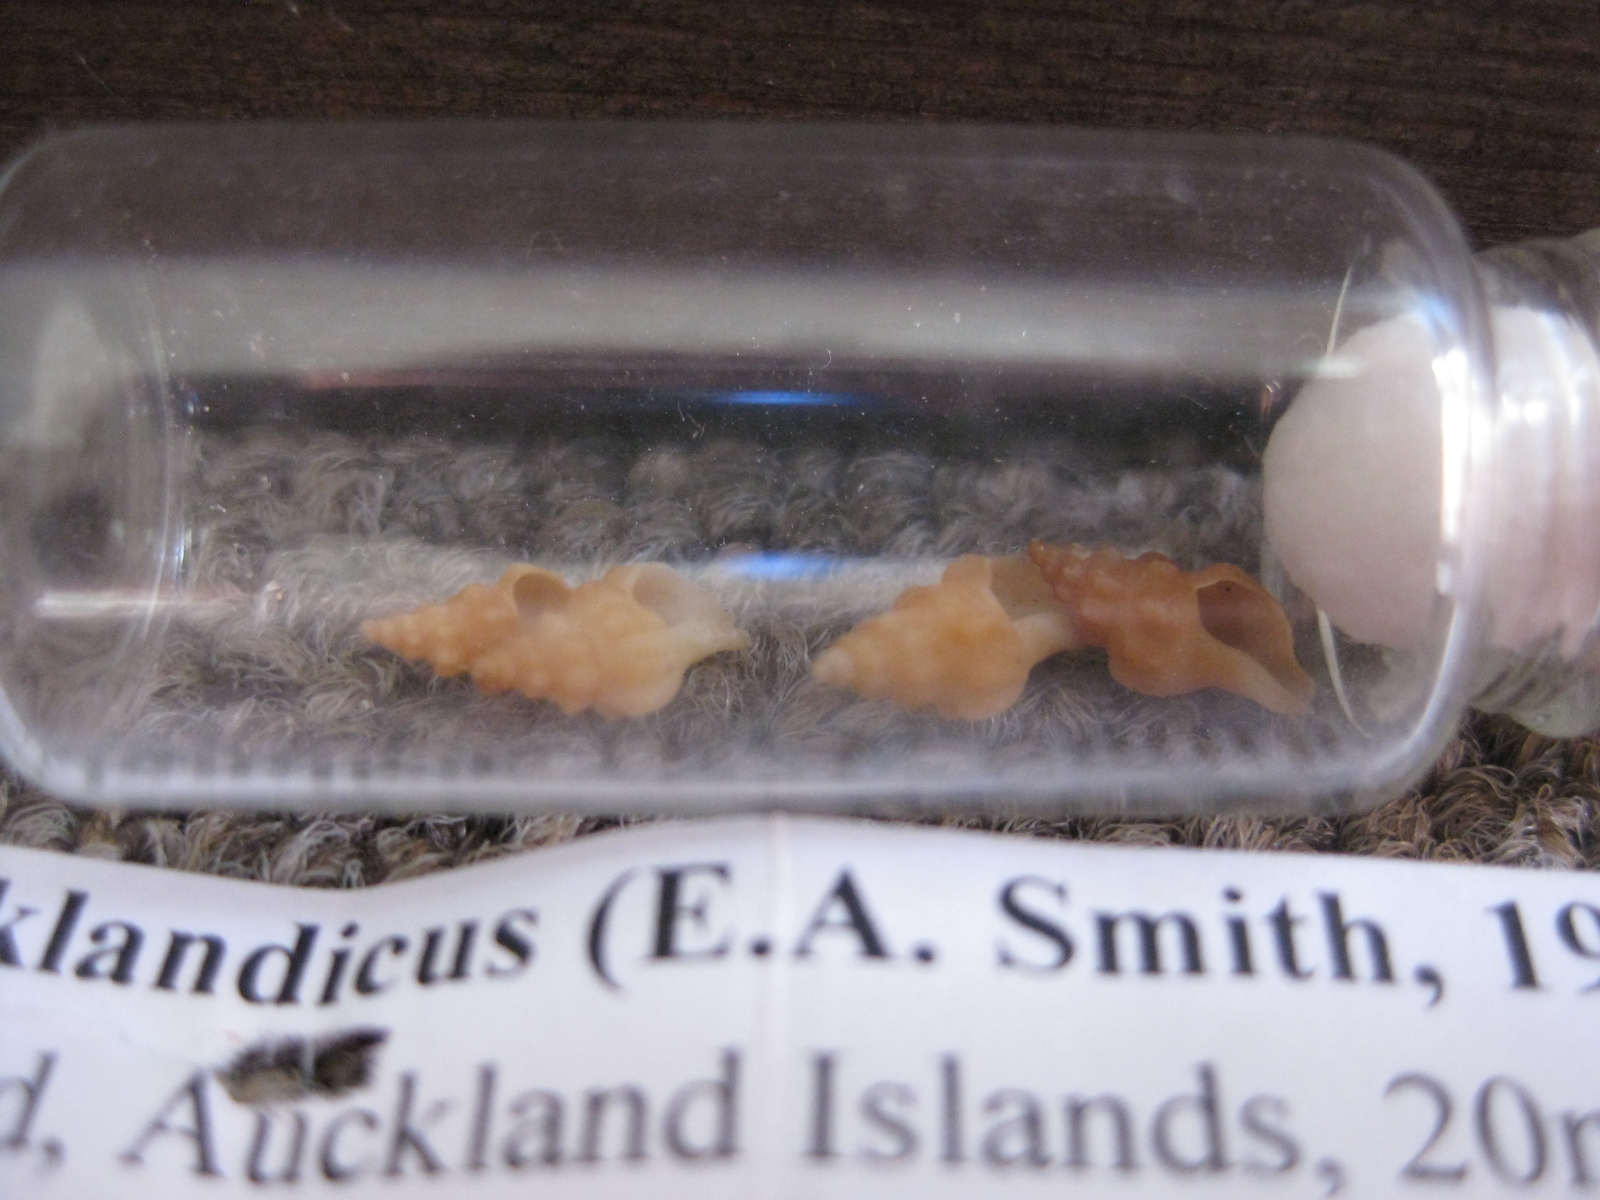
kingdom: Animalia
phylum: Mollusca
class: Gastropoda
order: Neogastropoda
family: Muricidae
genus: Axymene
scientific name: Axymene aucklandicus
